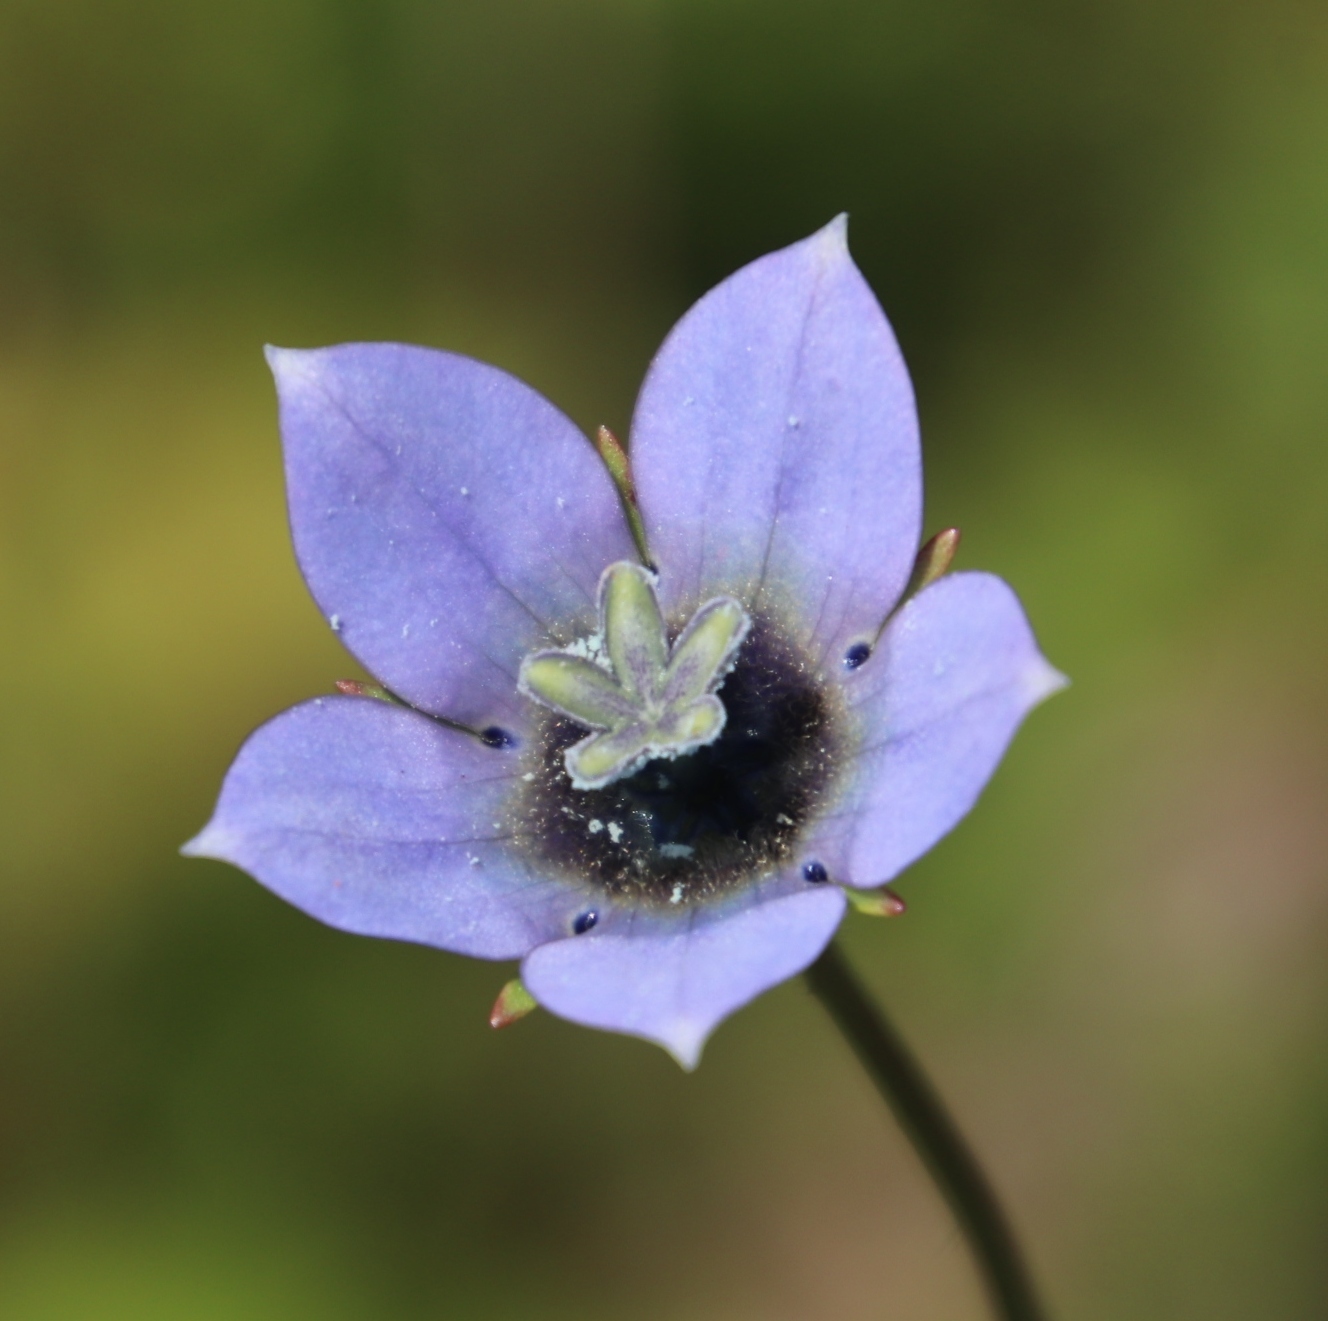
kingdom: Plantae
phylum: Tracheophyta
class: Magnoliopsida
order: Asterales
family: Campanulaceae
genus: Wahlenbergia
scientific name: Wahlenbergia capensis
